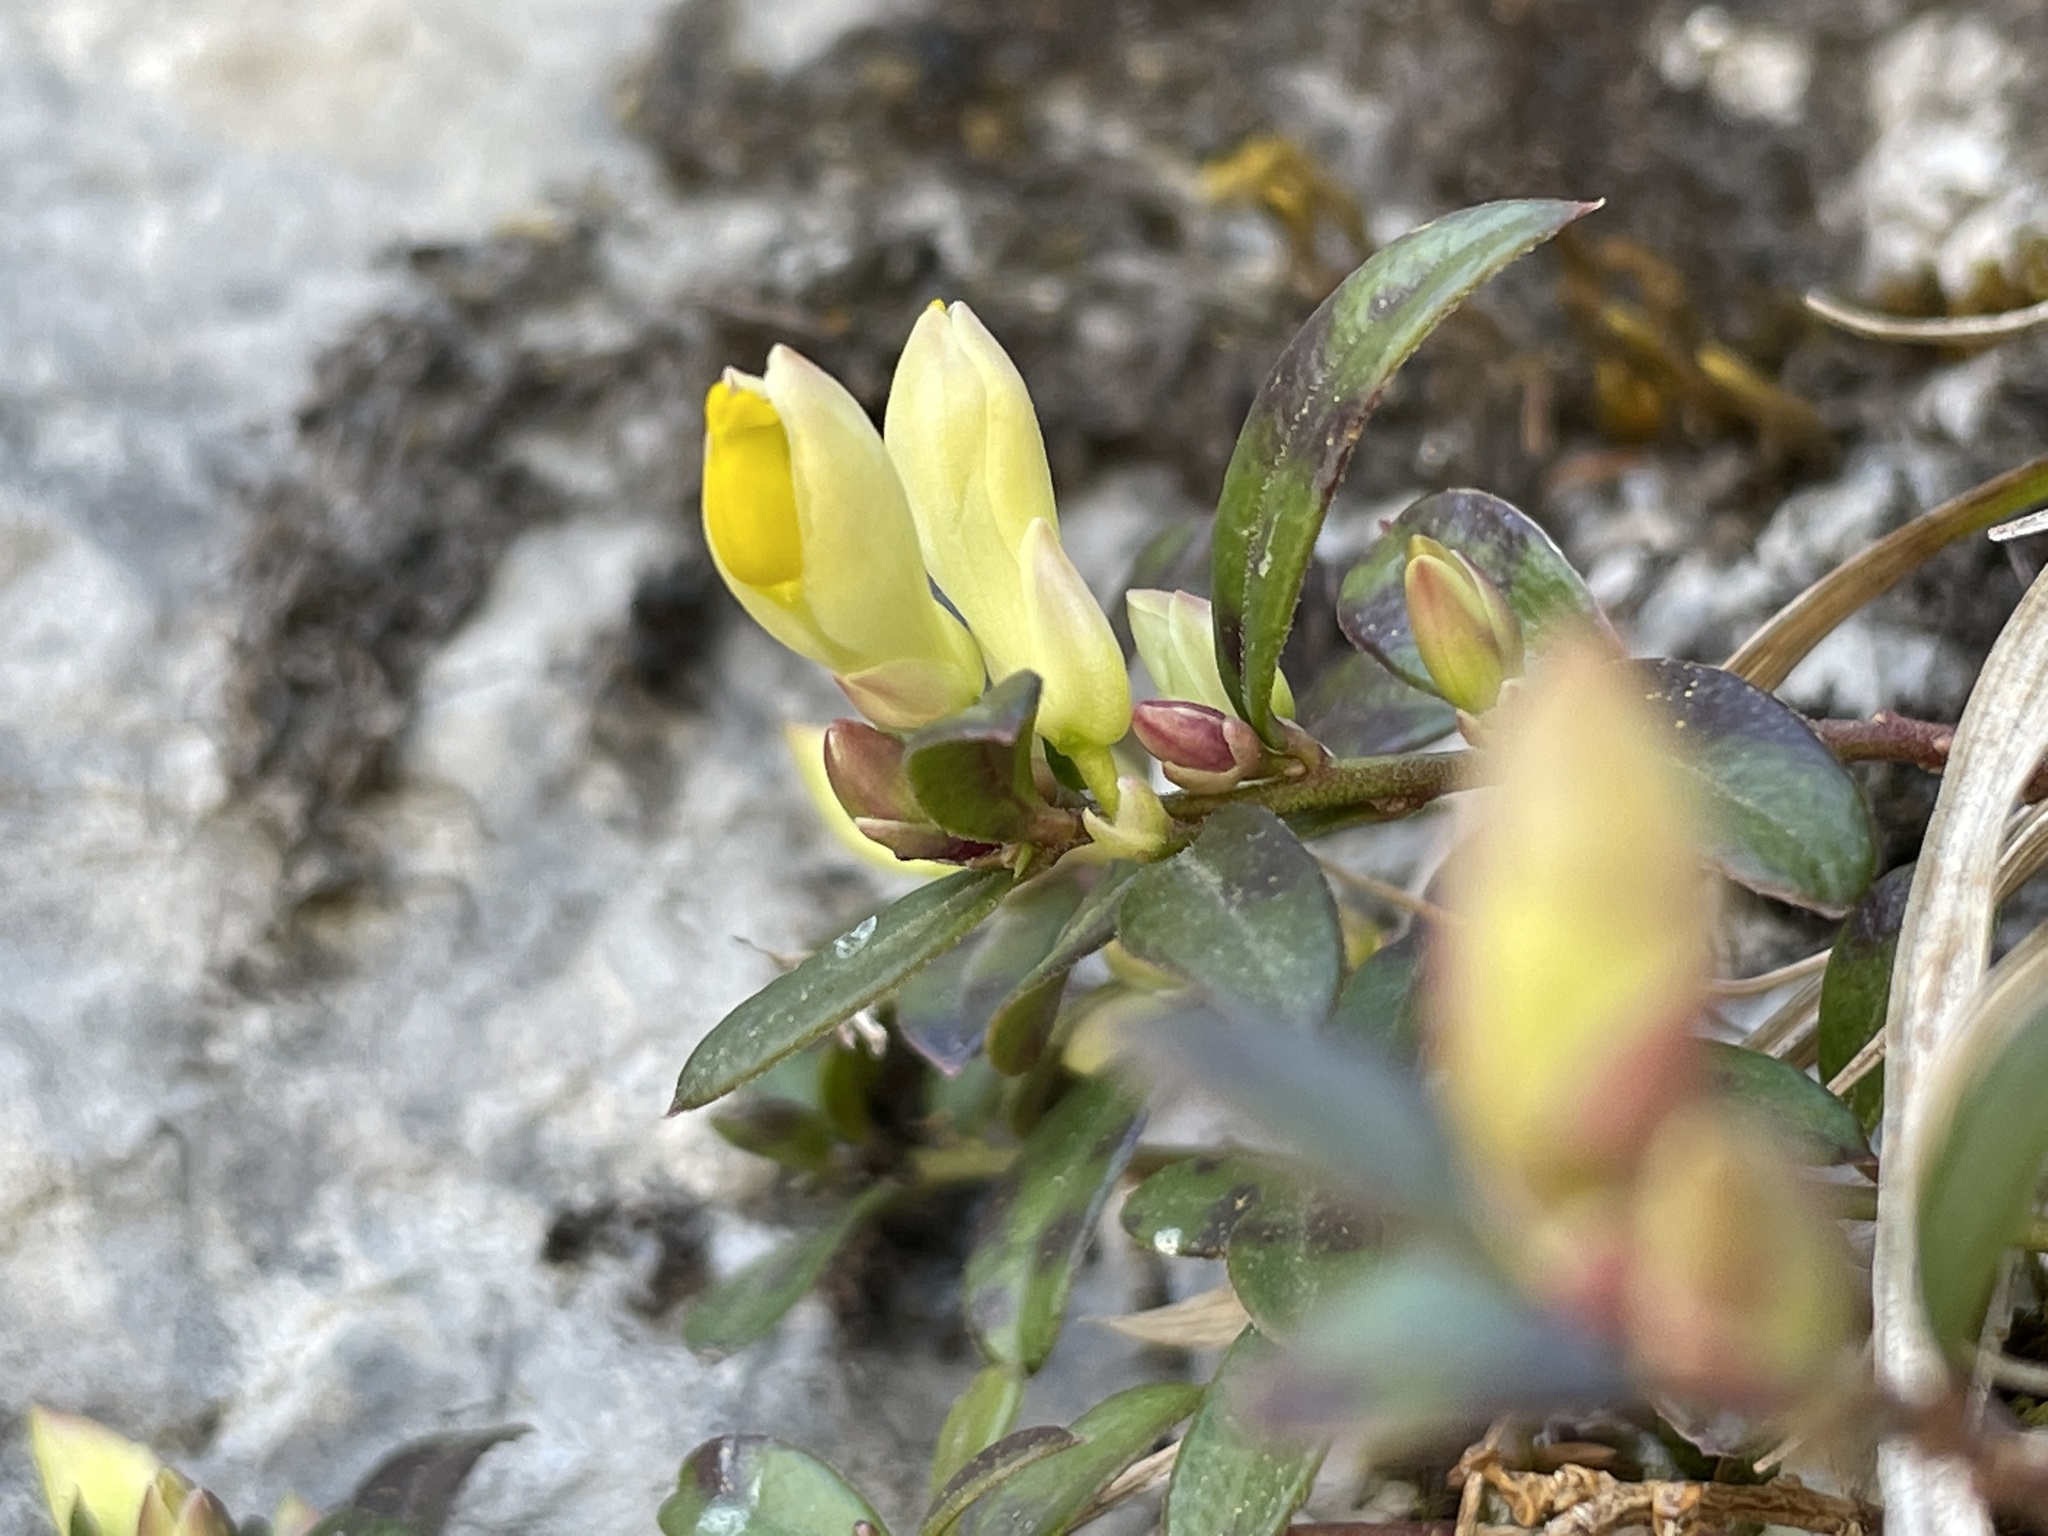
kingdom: Plantae
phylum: Tracheophyta
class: Magnoliopsida
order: Fabales
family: Polygalaceae
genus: Polygaloides
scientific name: Polygaloides chamaebuxus
